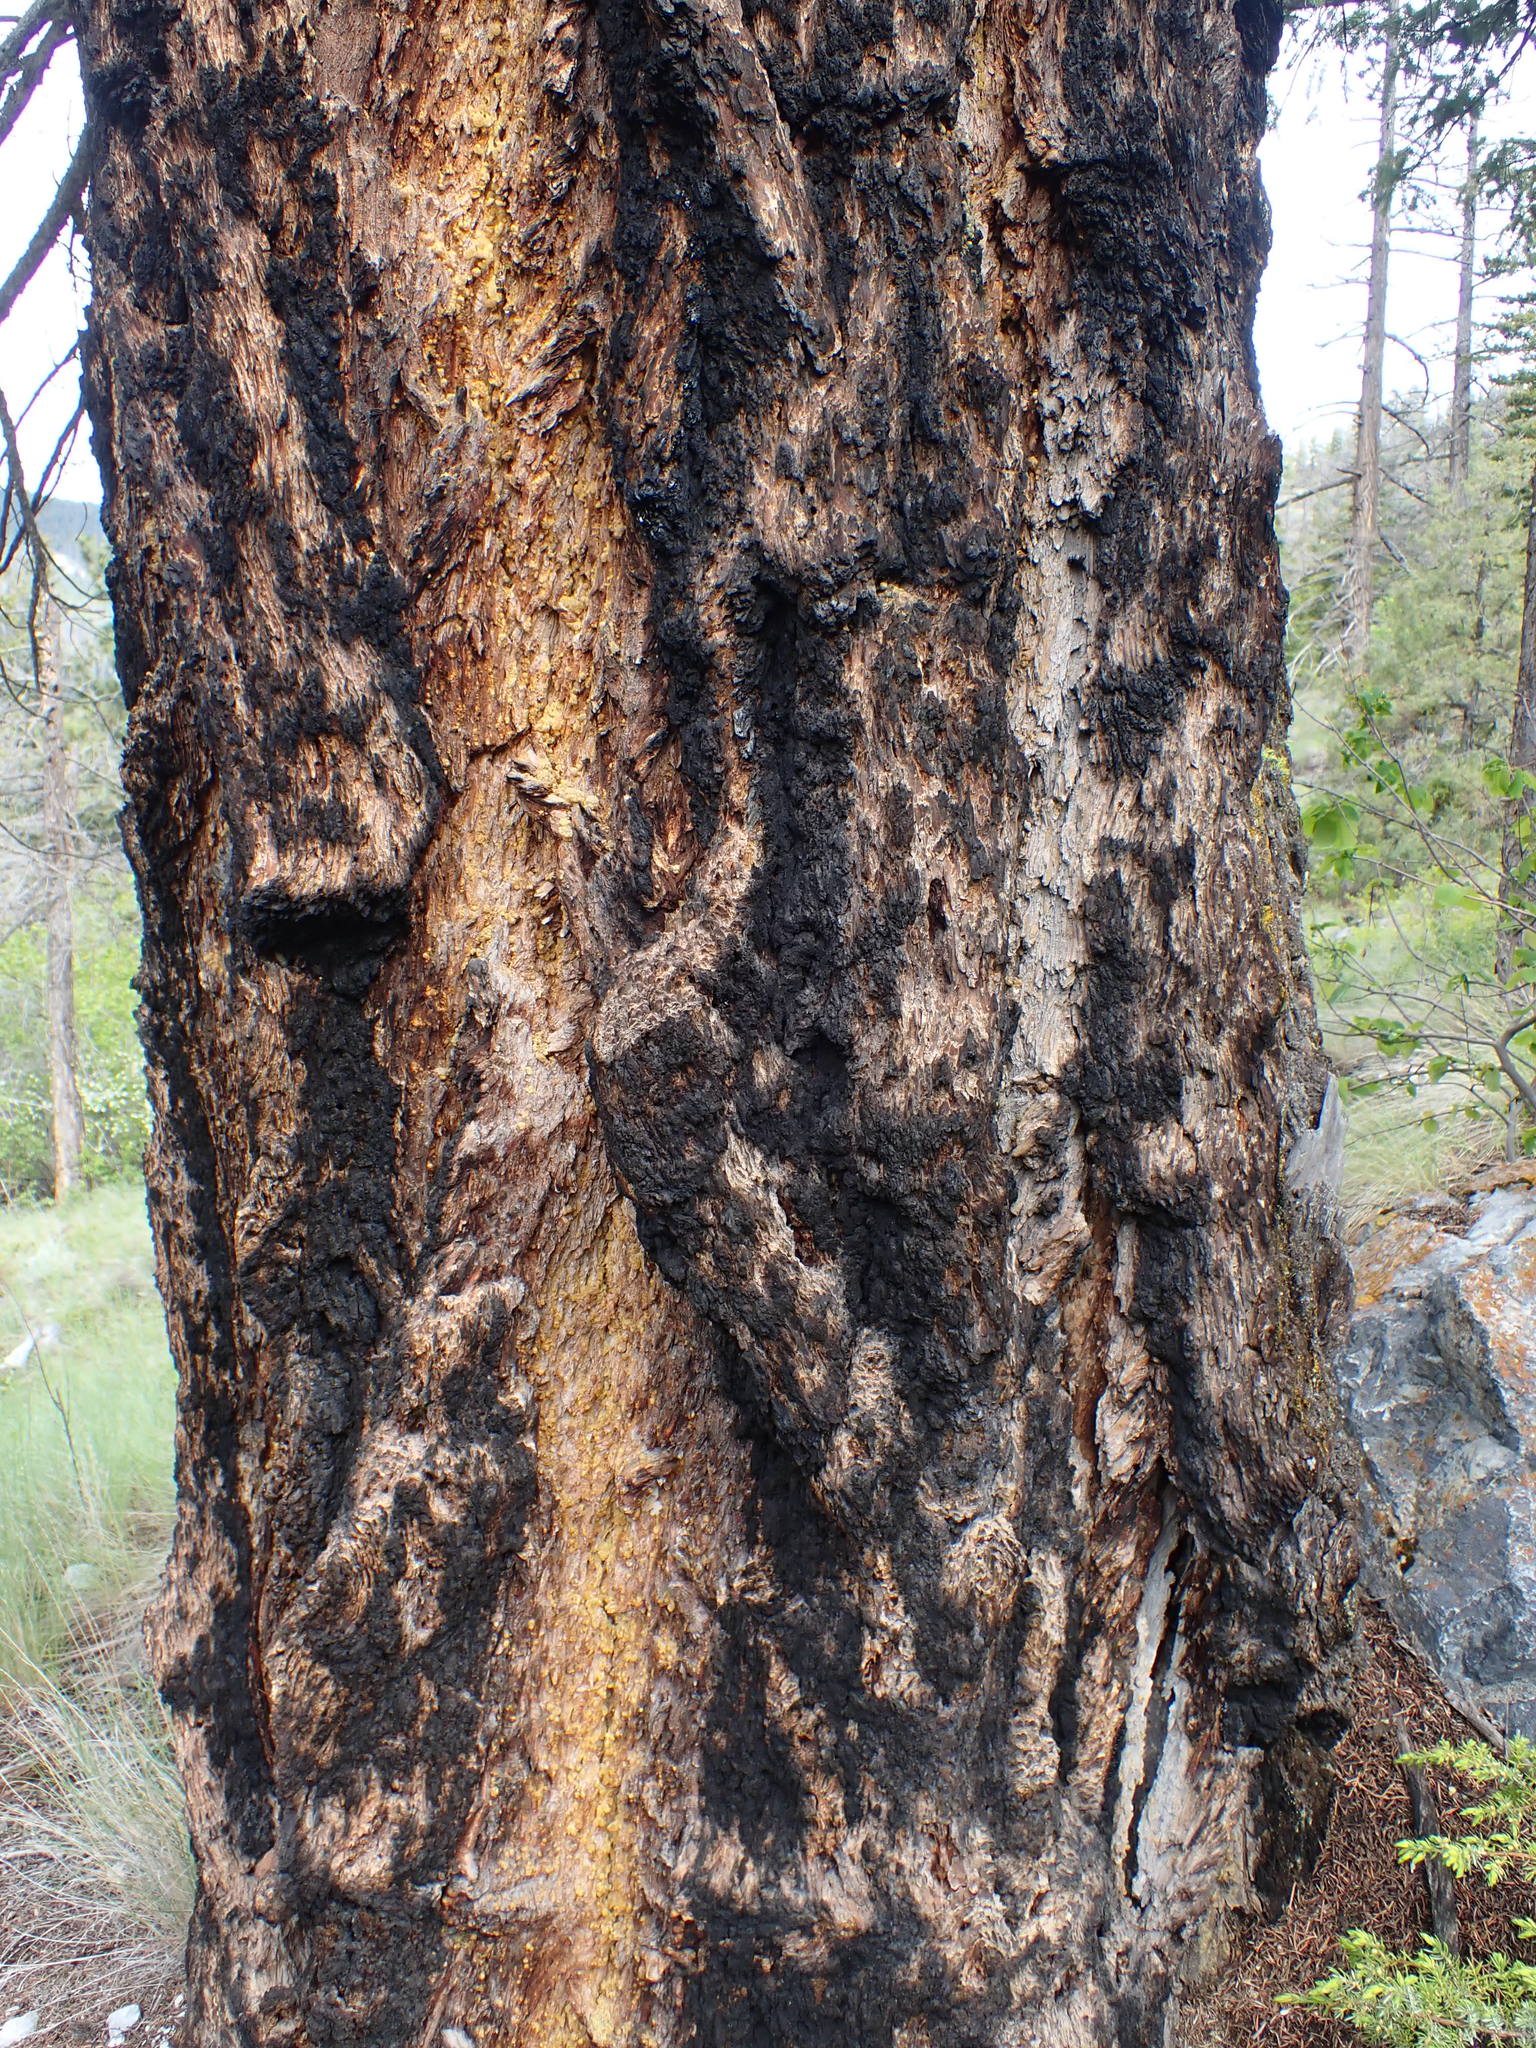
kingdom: Plantae
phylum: Tracheophyta
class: Pinopsida
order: Pinales
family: Pinaceae
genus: Pseudotsuga
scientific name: Pseudotsuga menziesii
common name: Douglas fir
